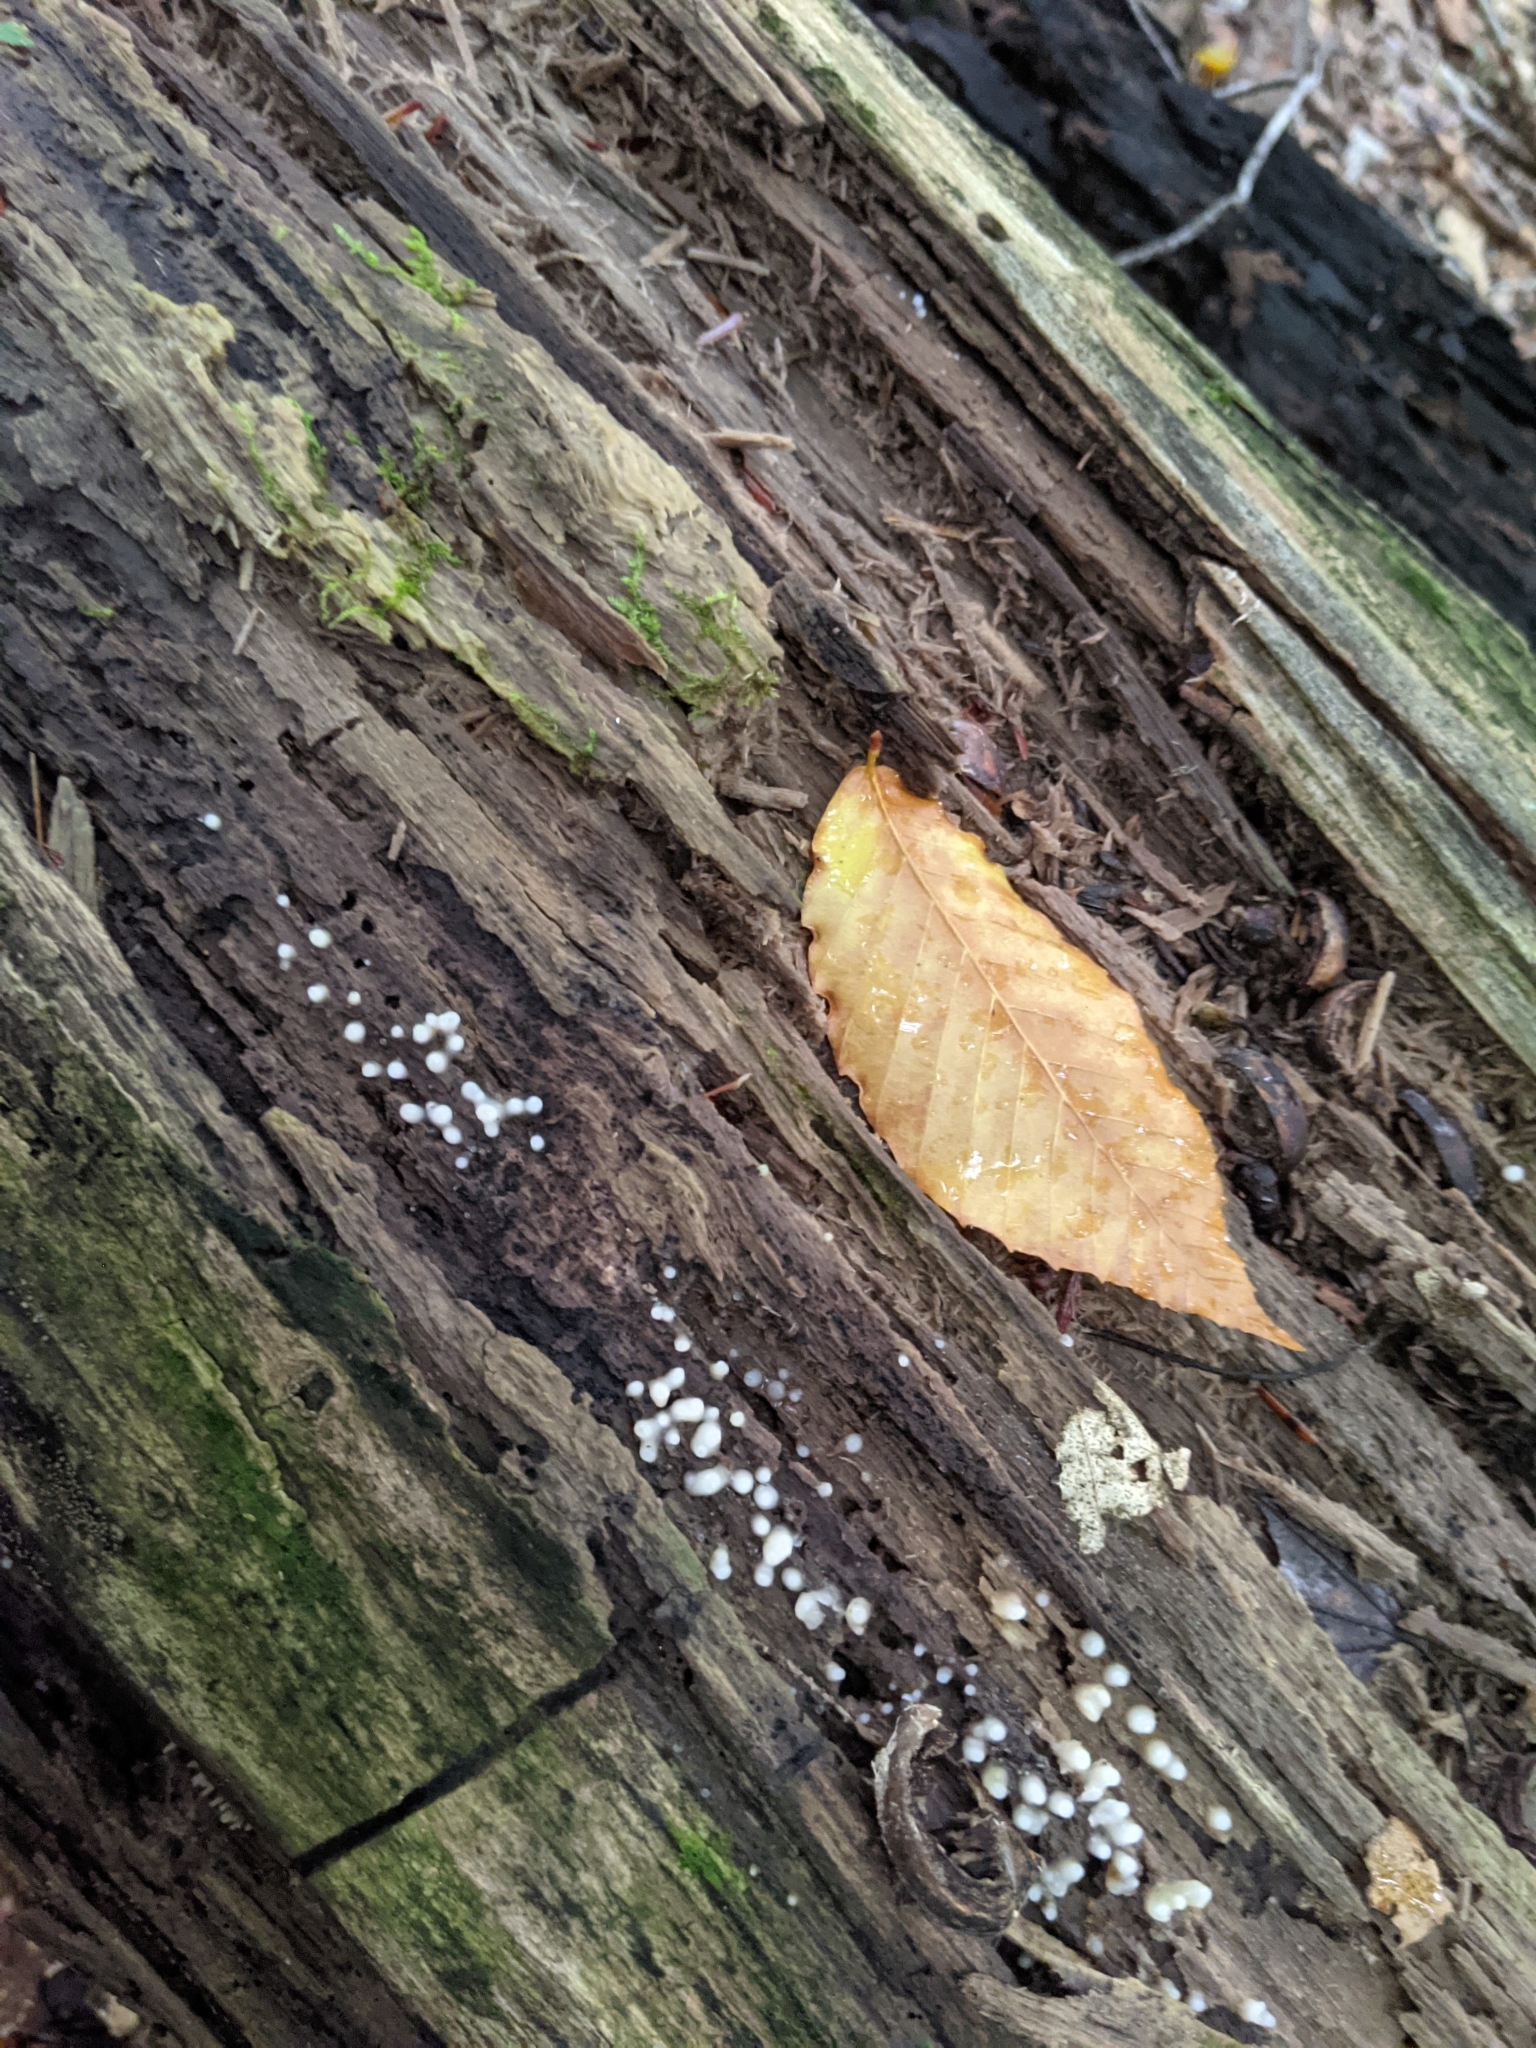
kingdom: Fungi
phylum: Basidiomycota
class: Atractiellomycetes
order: Atractiellales
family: Phleogenaceae
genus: Helicogloea
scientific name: Helicogloea compressa
